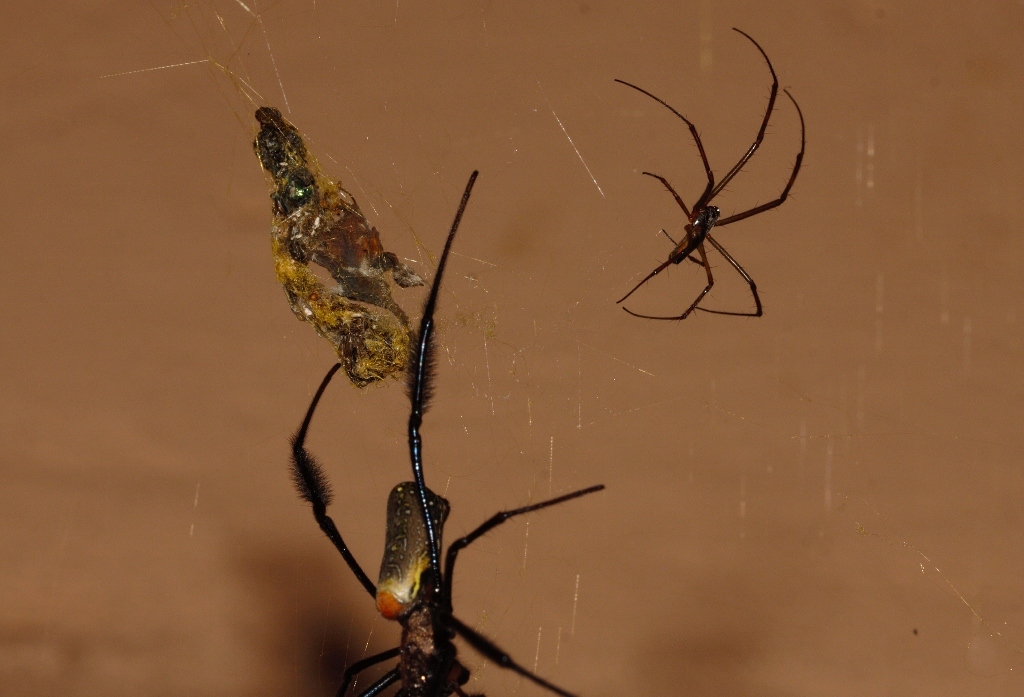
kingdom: Animalia
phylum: Arthropoda
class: Arachnida
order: Araneae
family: Araneidae
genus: Trichonephila
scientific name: Trichonephila fenestrata
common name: Hairy golden orb weaver
